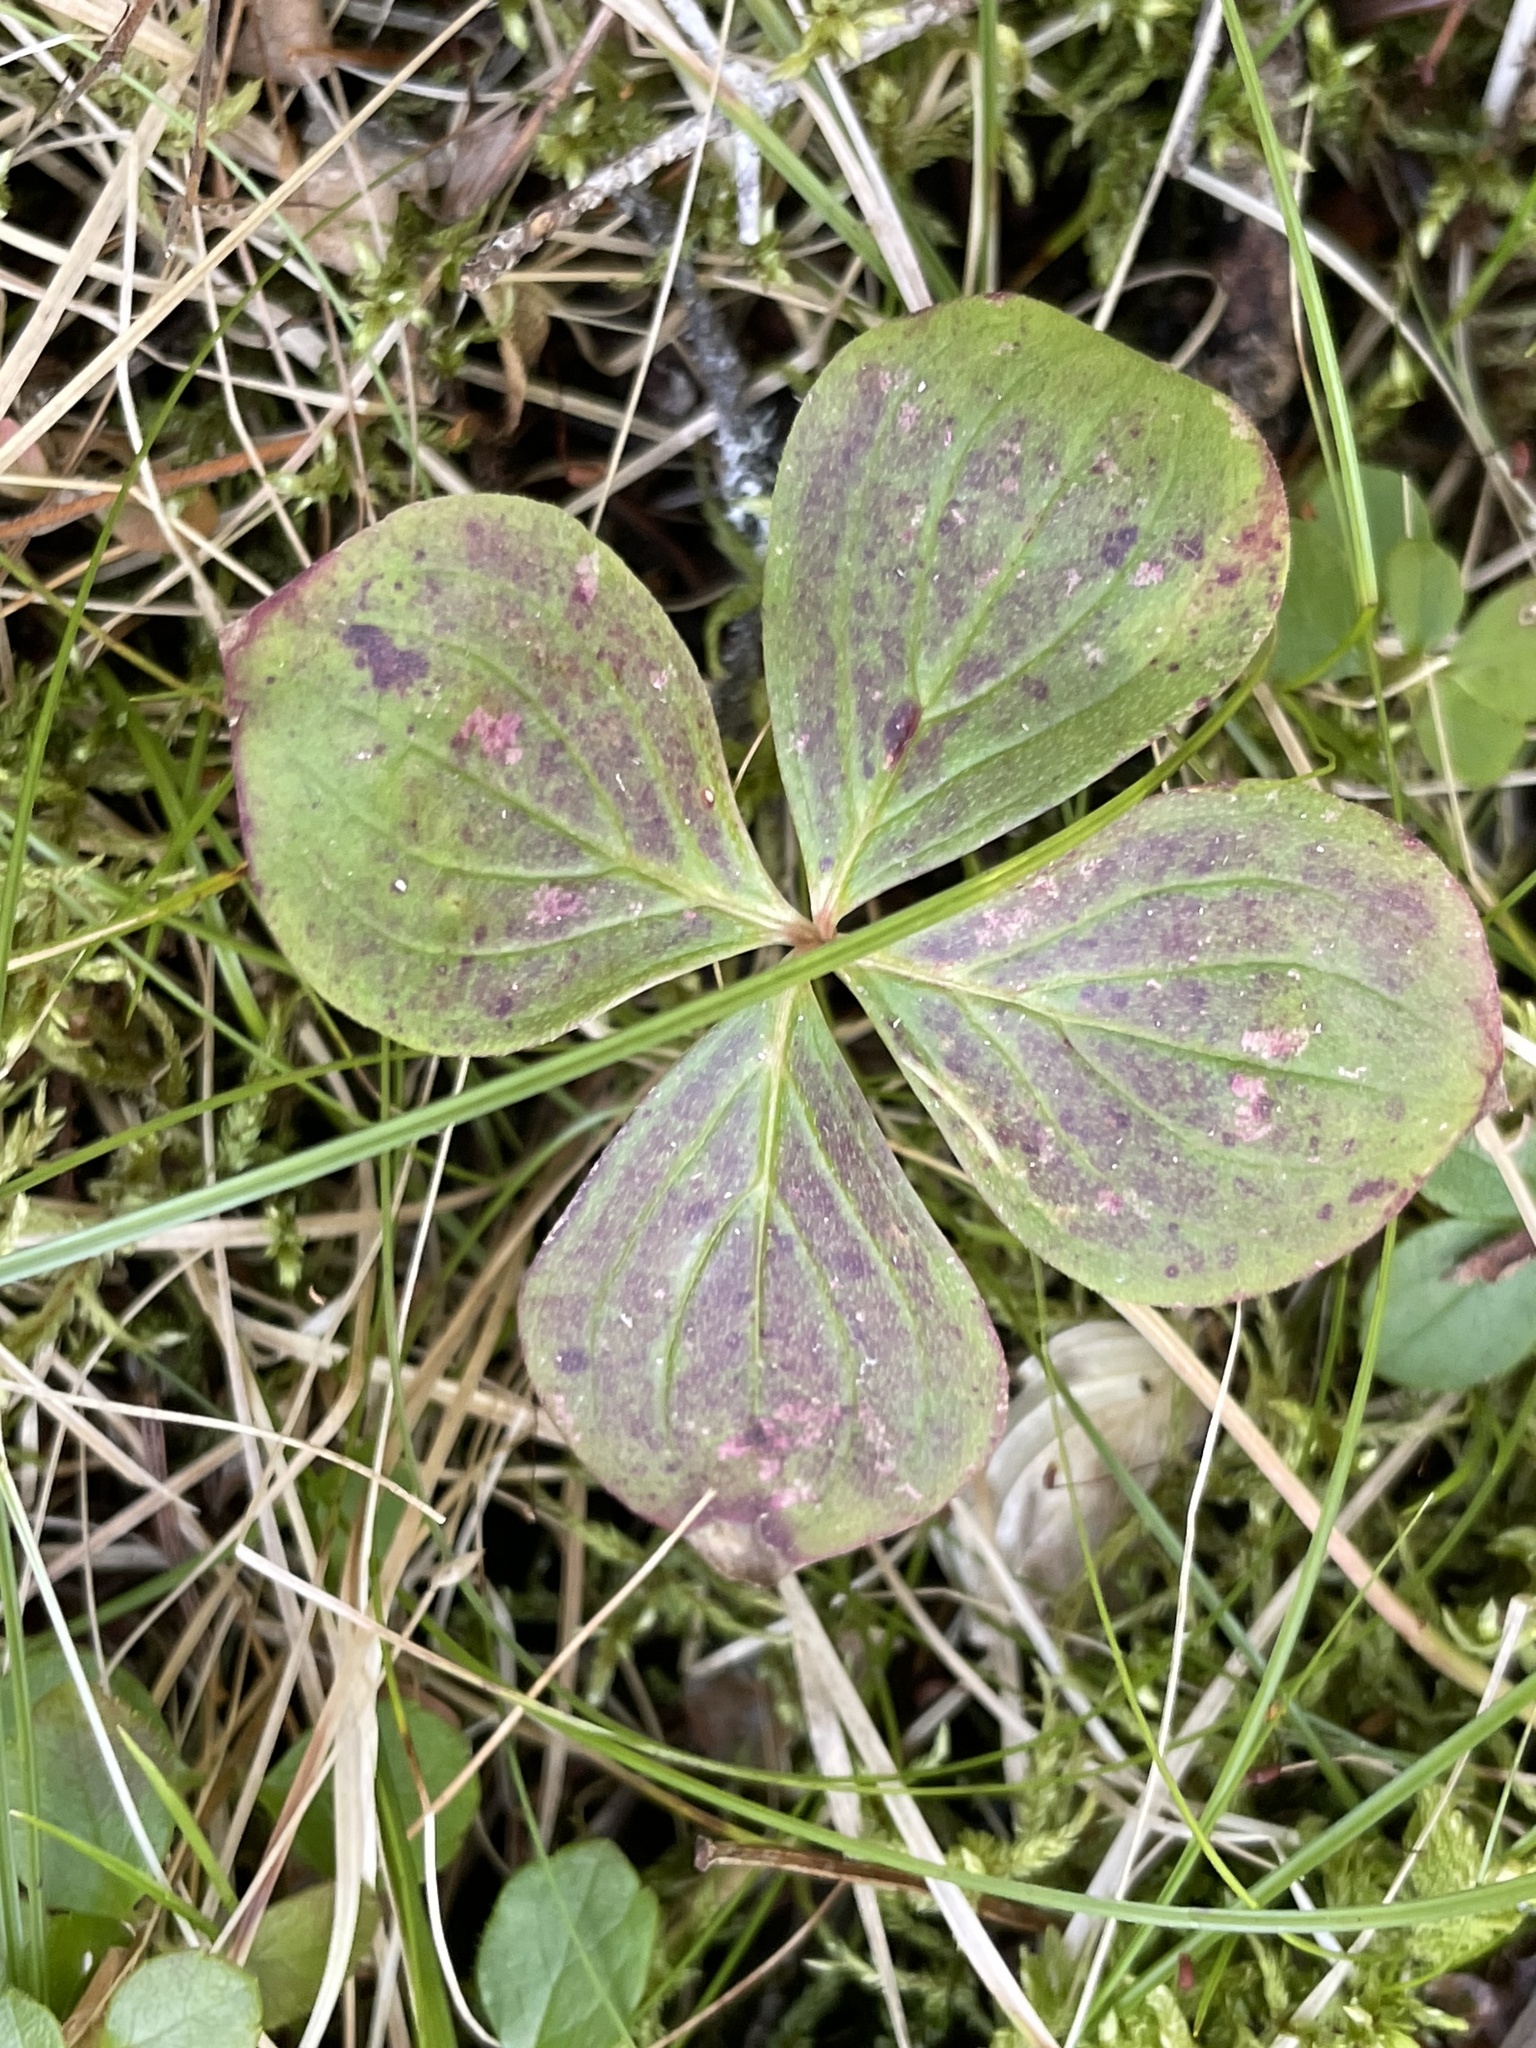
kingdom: Plantae
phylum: Tracheophyta
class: Magnoliopsida
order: Cornales
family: Cornaceae
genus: Cornus
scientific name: Cornus canadensis
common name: Creeping dogwood
